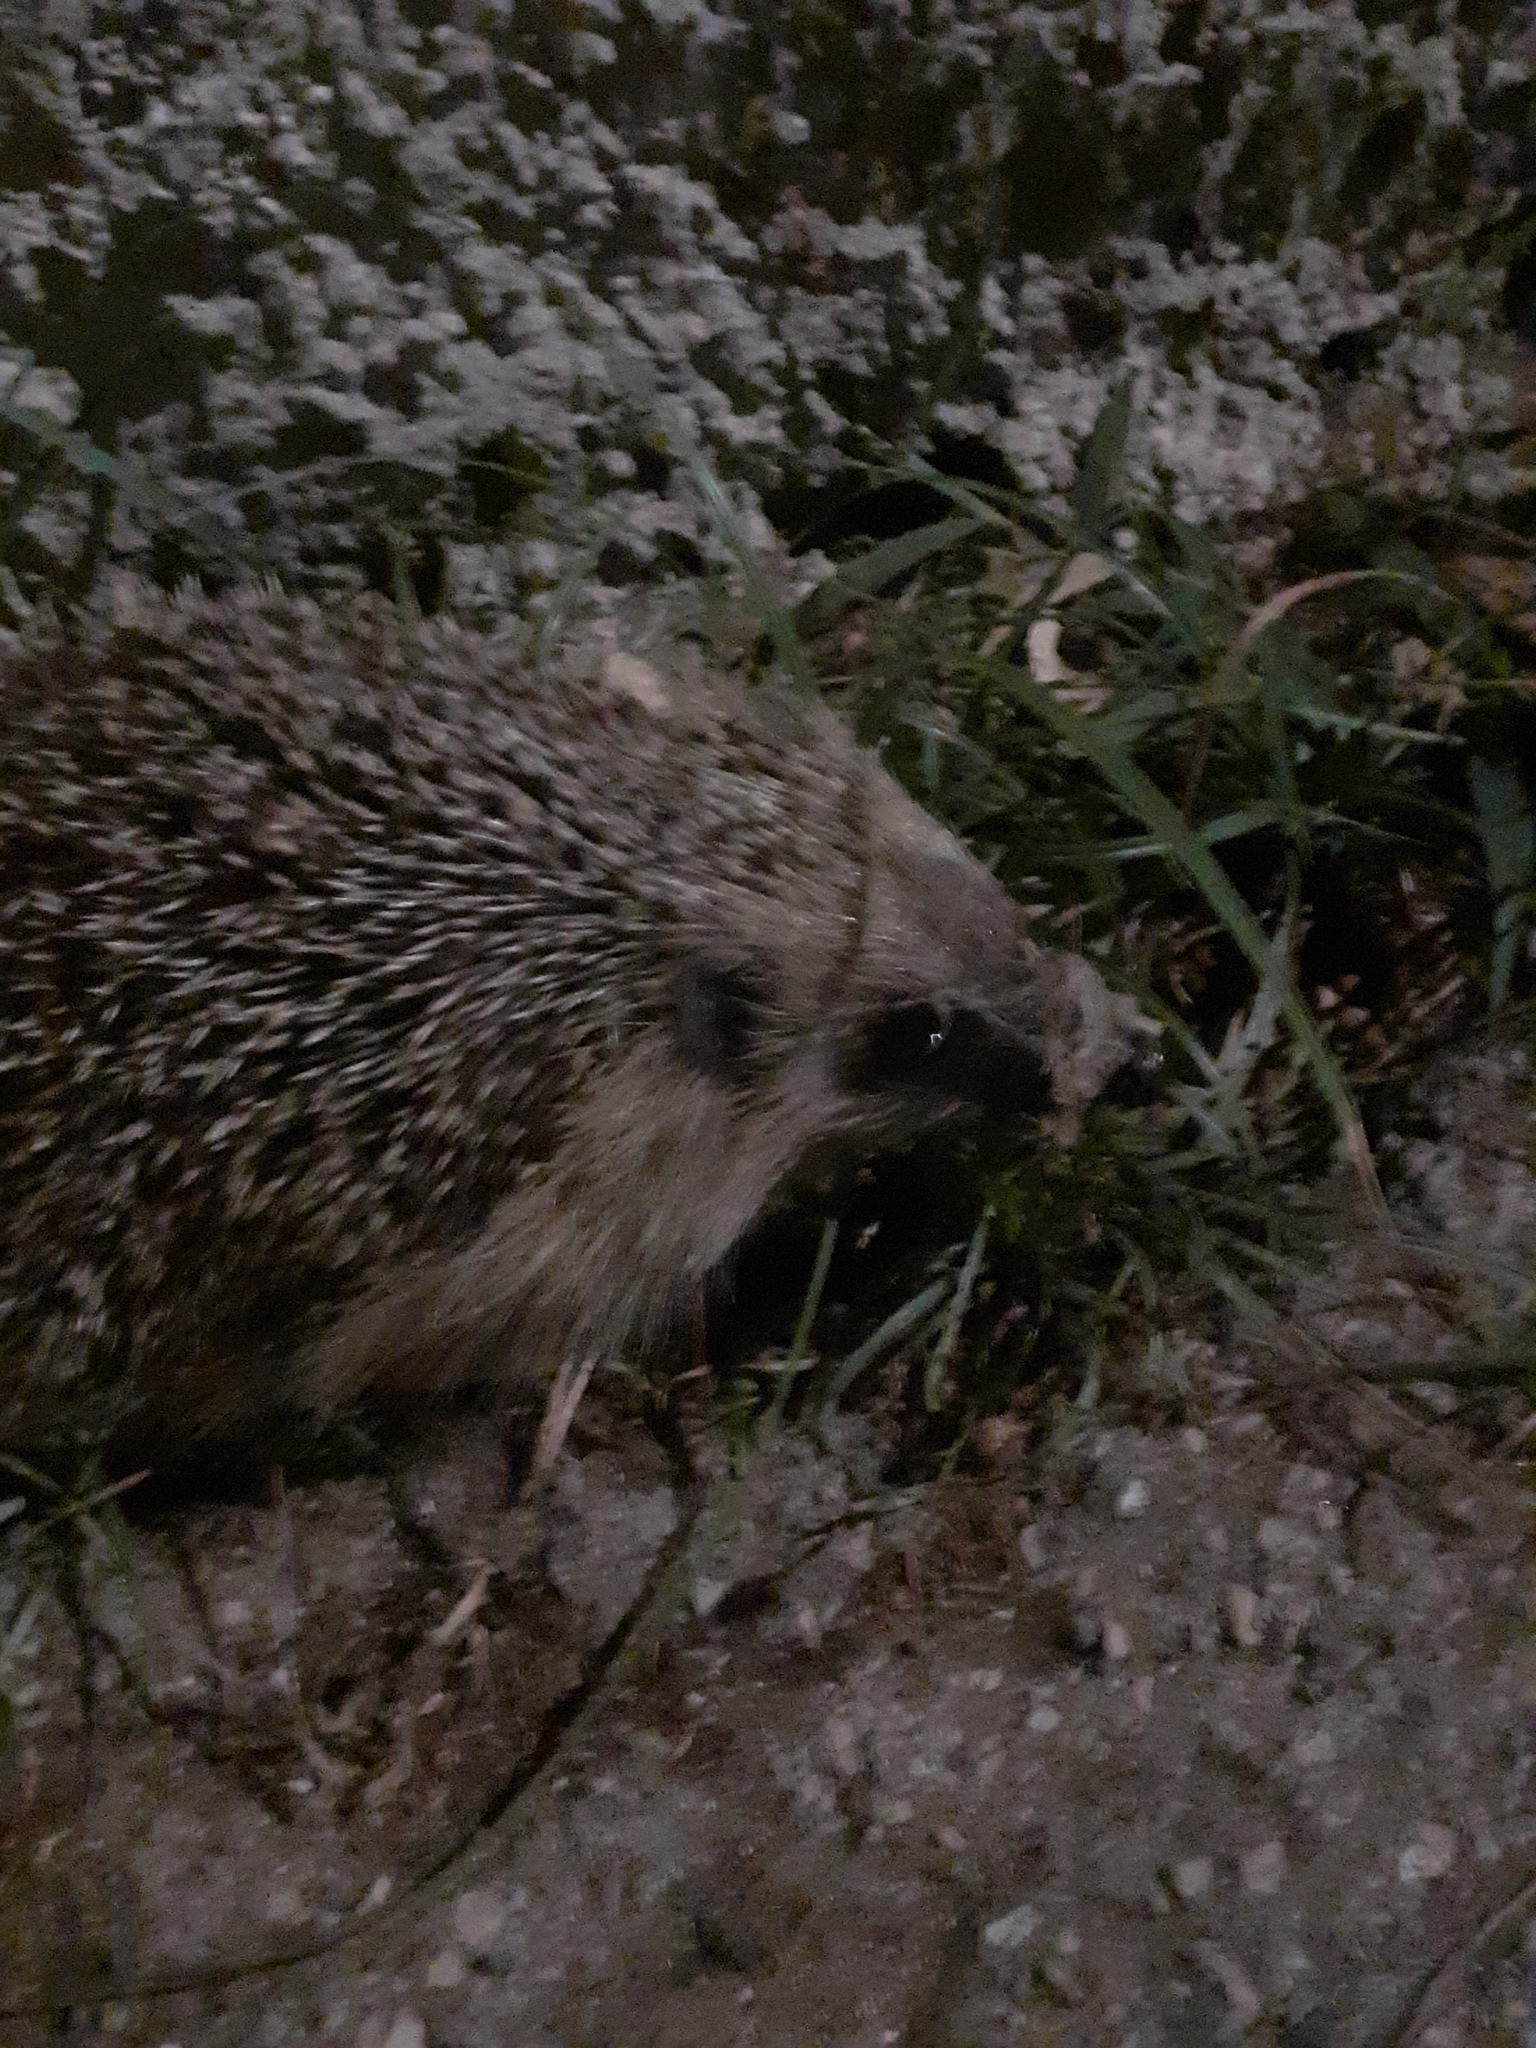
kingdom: Animalia
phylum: Chordata
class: Mammalia
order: Erinaceomorpha
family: Erinaceidae
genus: Erinaceus
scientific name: Erinaceus europaeus
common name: West european hedgehog
